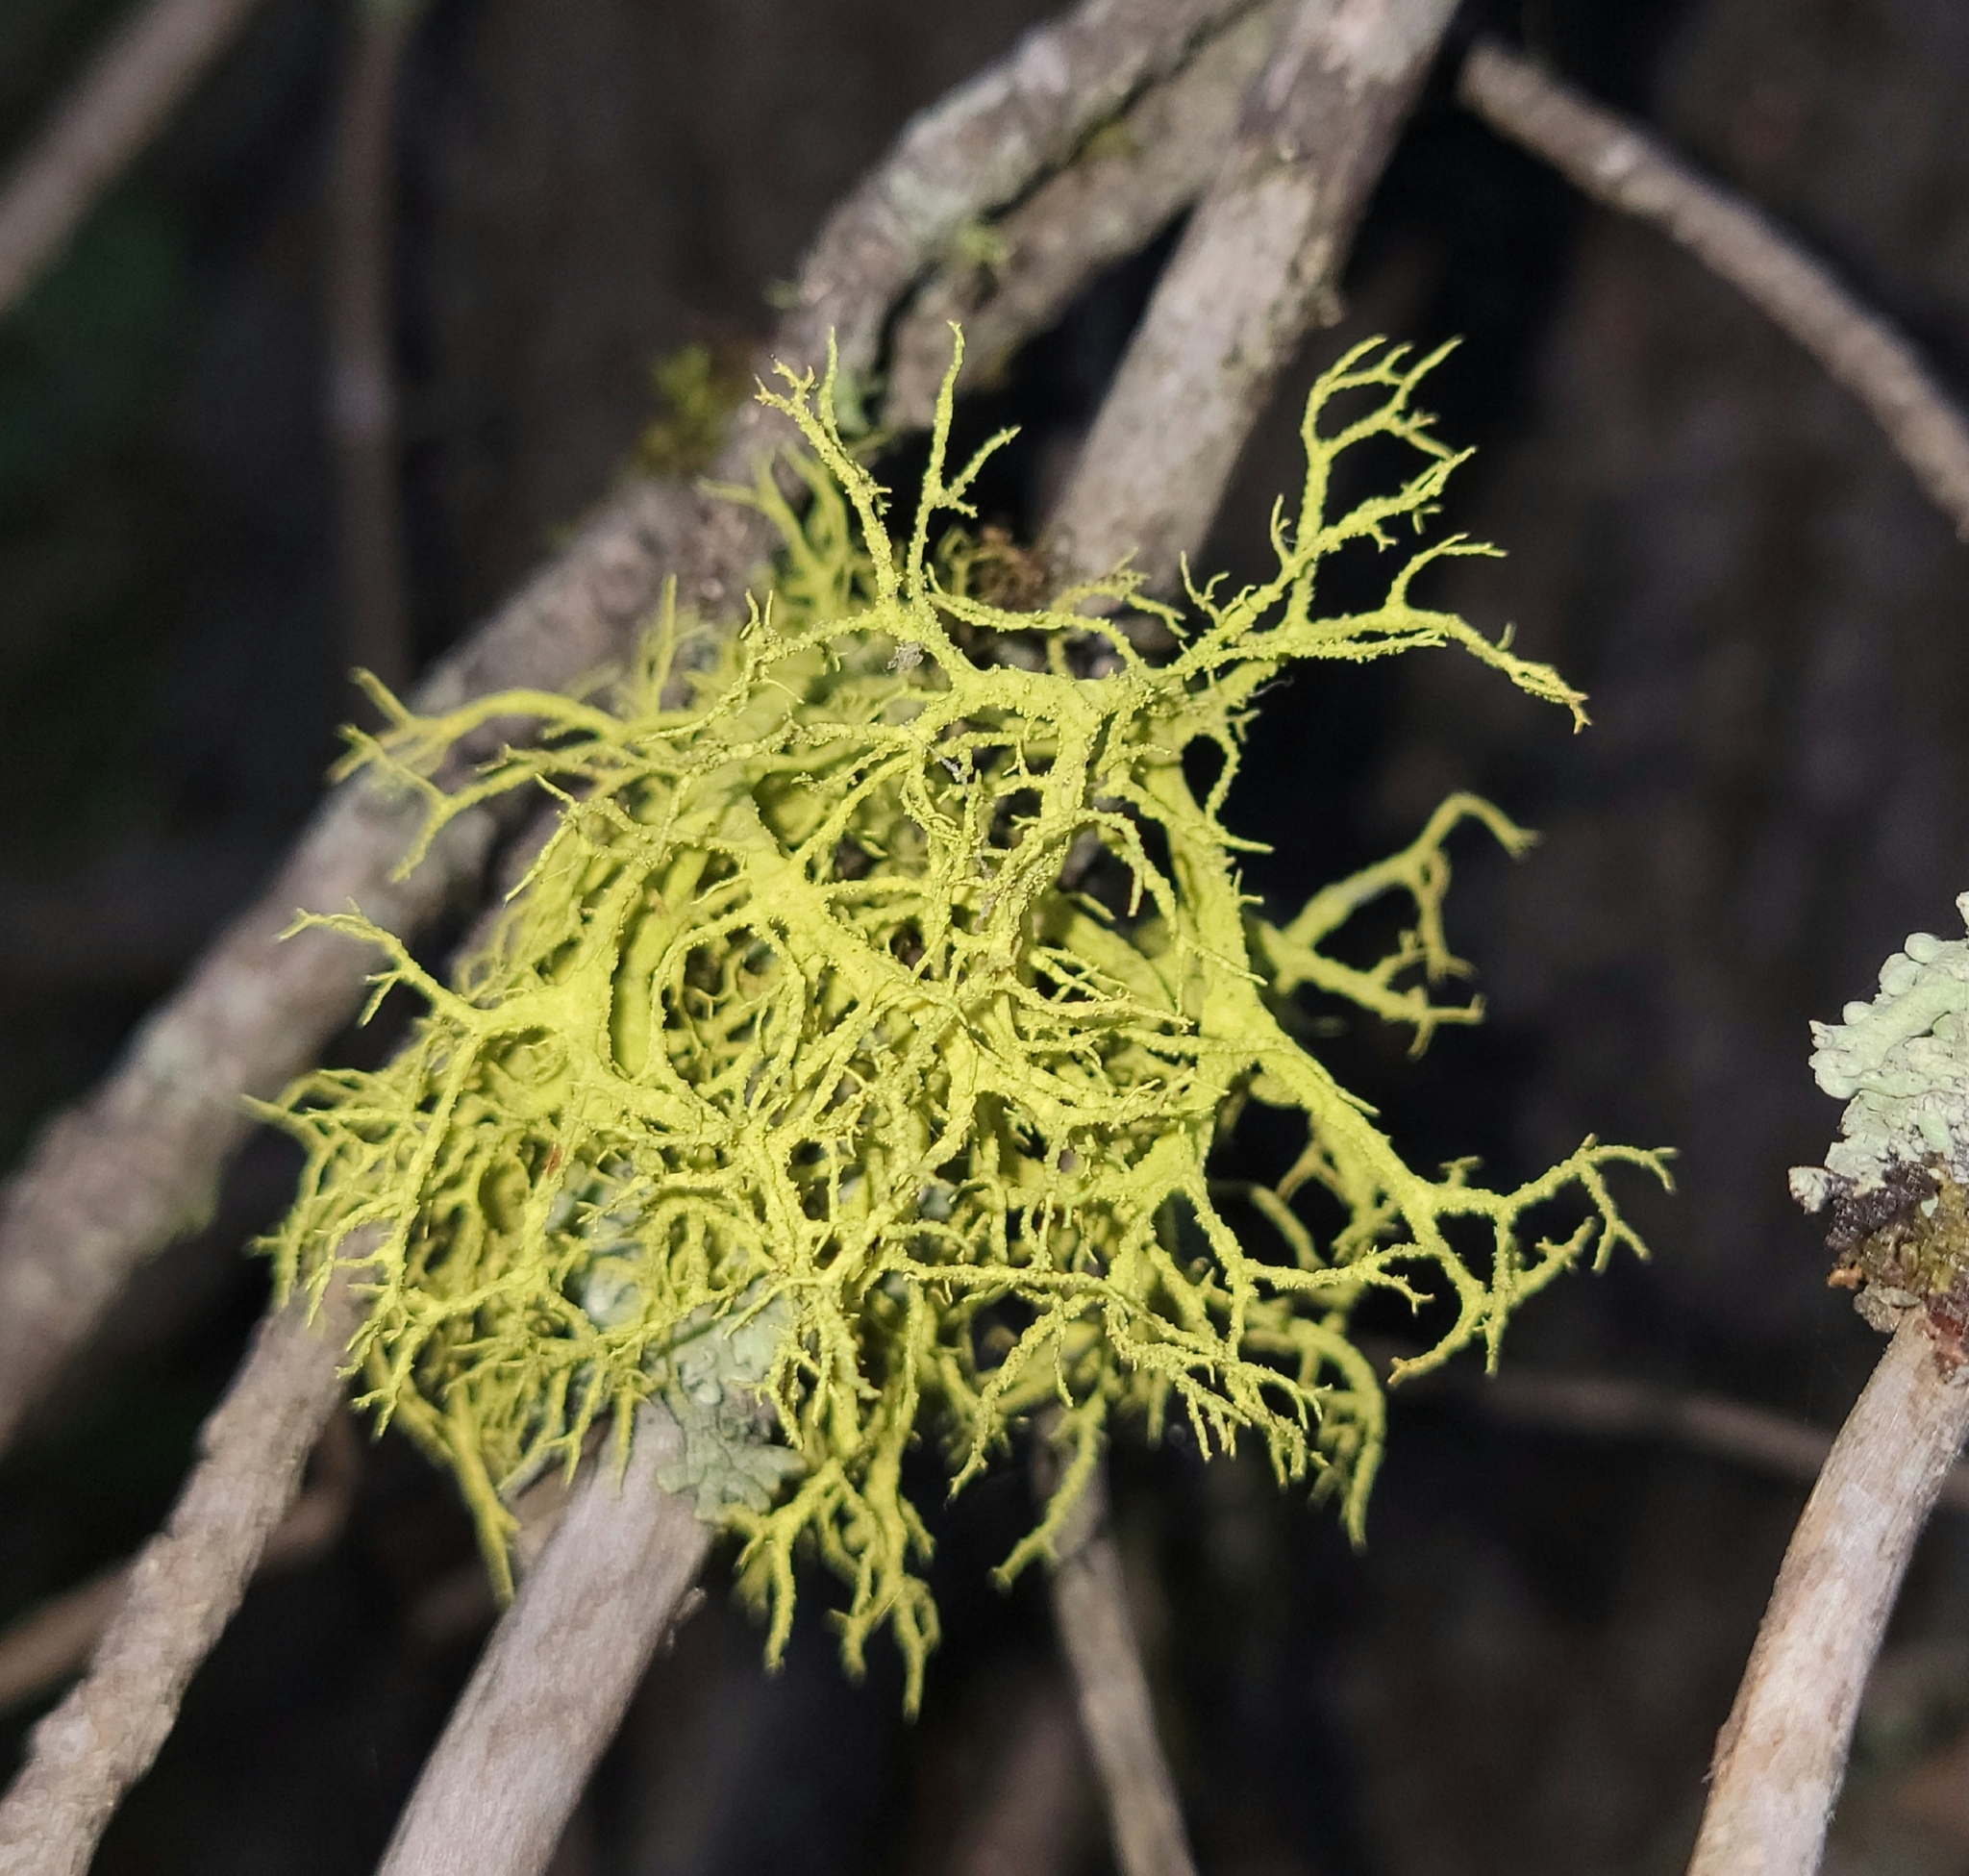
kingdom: Fungi
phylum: Ascomycota
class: Lecanoromycetes
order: Lecanorales
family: Parmeliaceae
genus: Letharia
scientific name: Letharia vulpina
